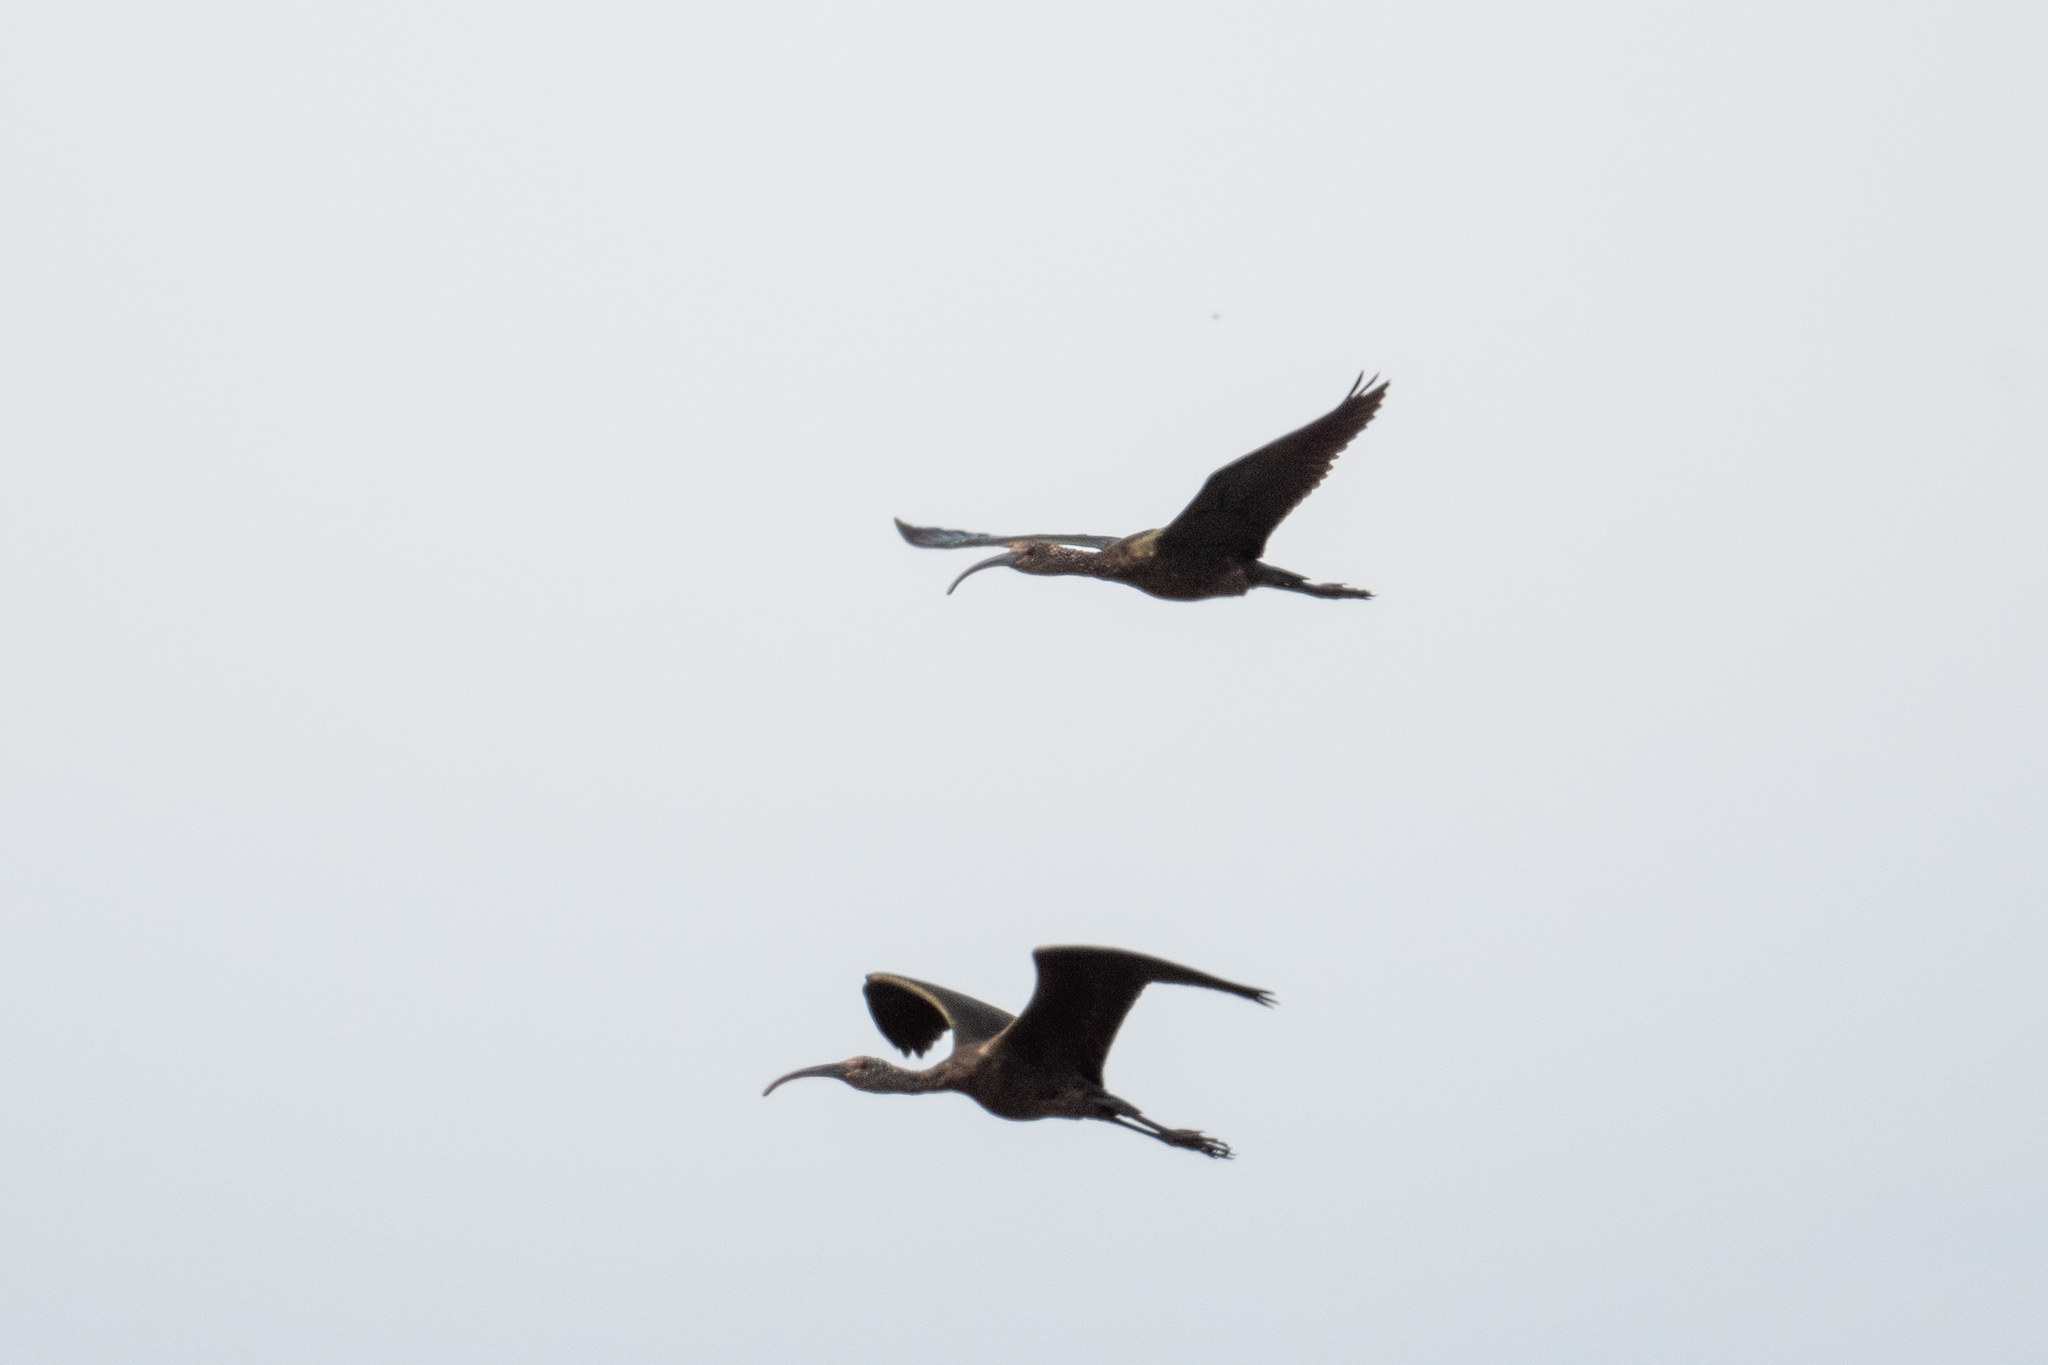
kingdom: Animalia
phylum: Chordata
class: Aves
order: Pelecaniformes
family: Threskiornithidae
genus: Plegadis
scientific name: Plegadis chihi
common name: White-faced ibis
